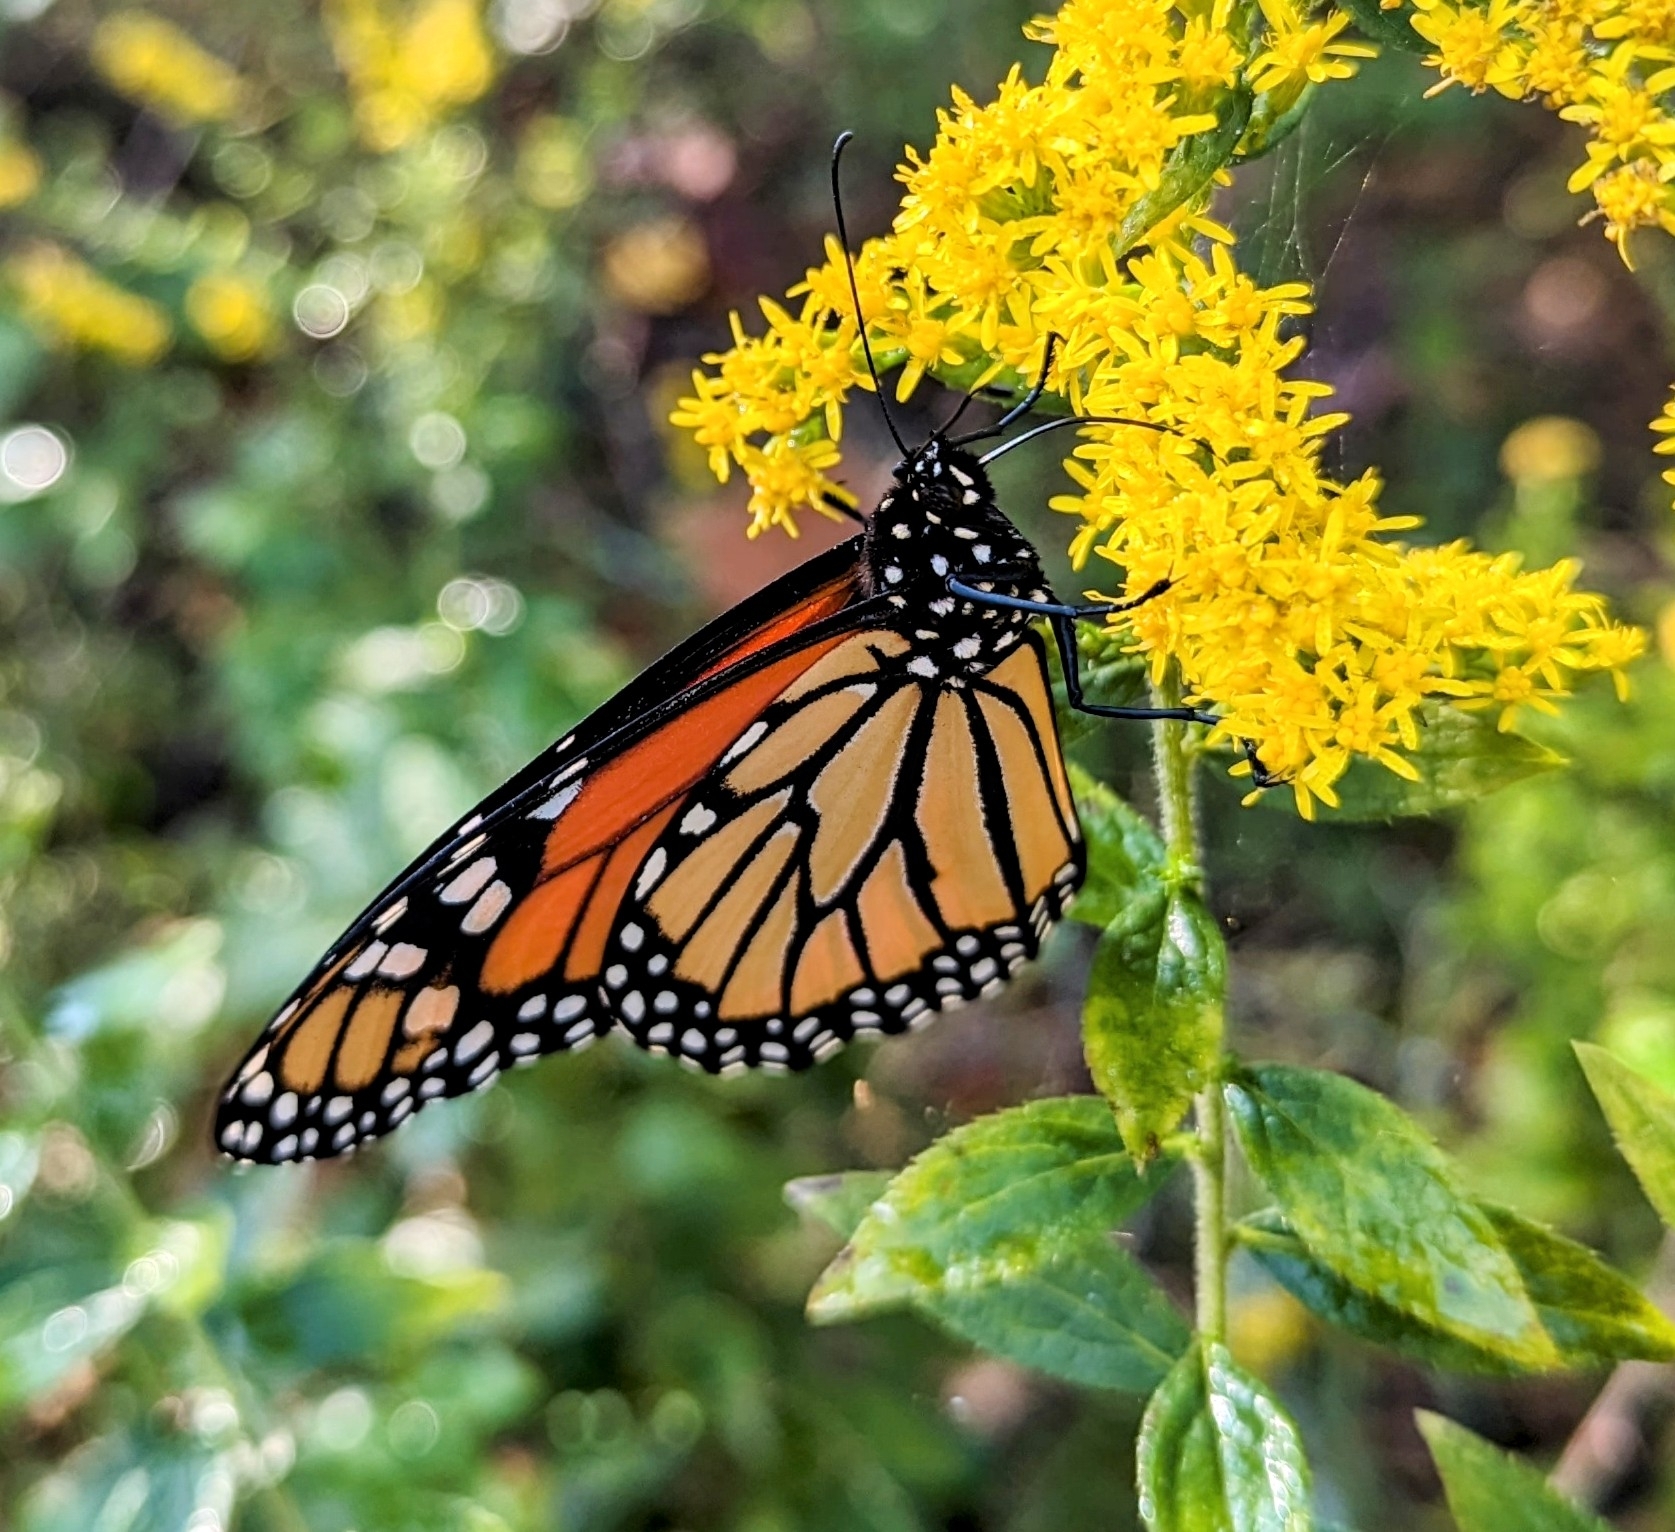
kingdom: Animalia
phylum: Arthropoda
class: Insecta
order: Lepidoptera
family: Nymphalidae
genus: Danaus
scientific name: Danaus plexippus
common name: Monarch
